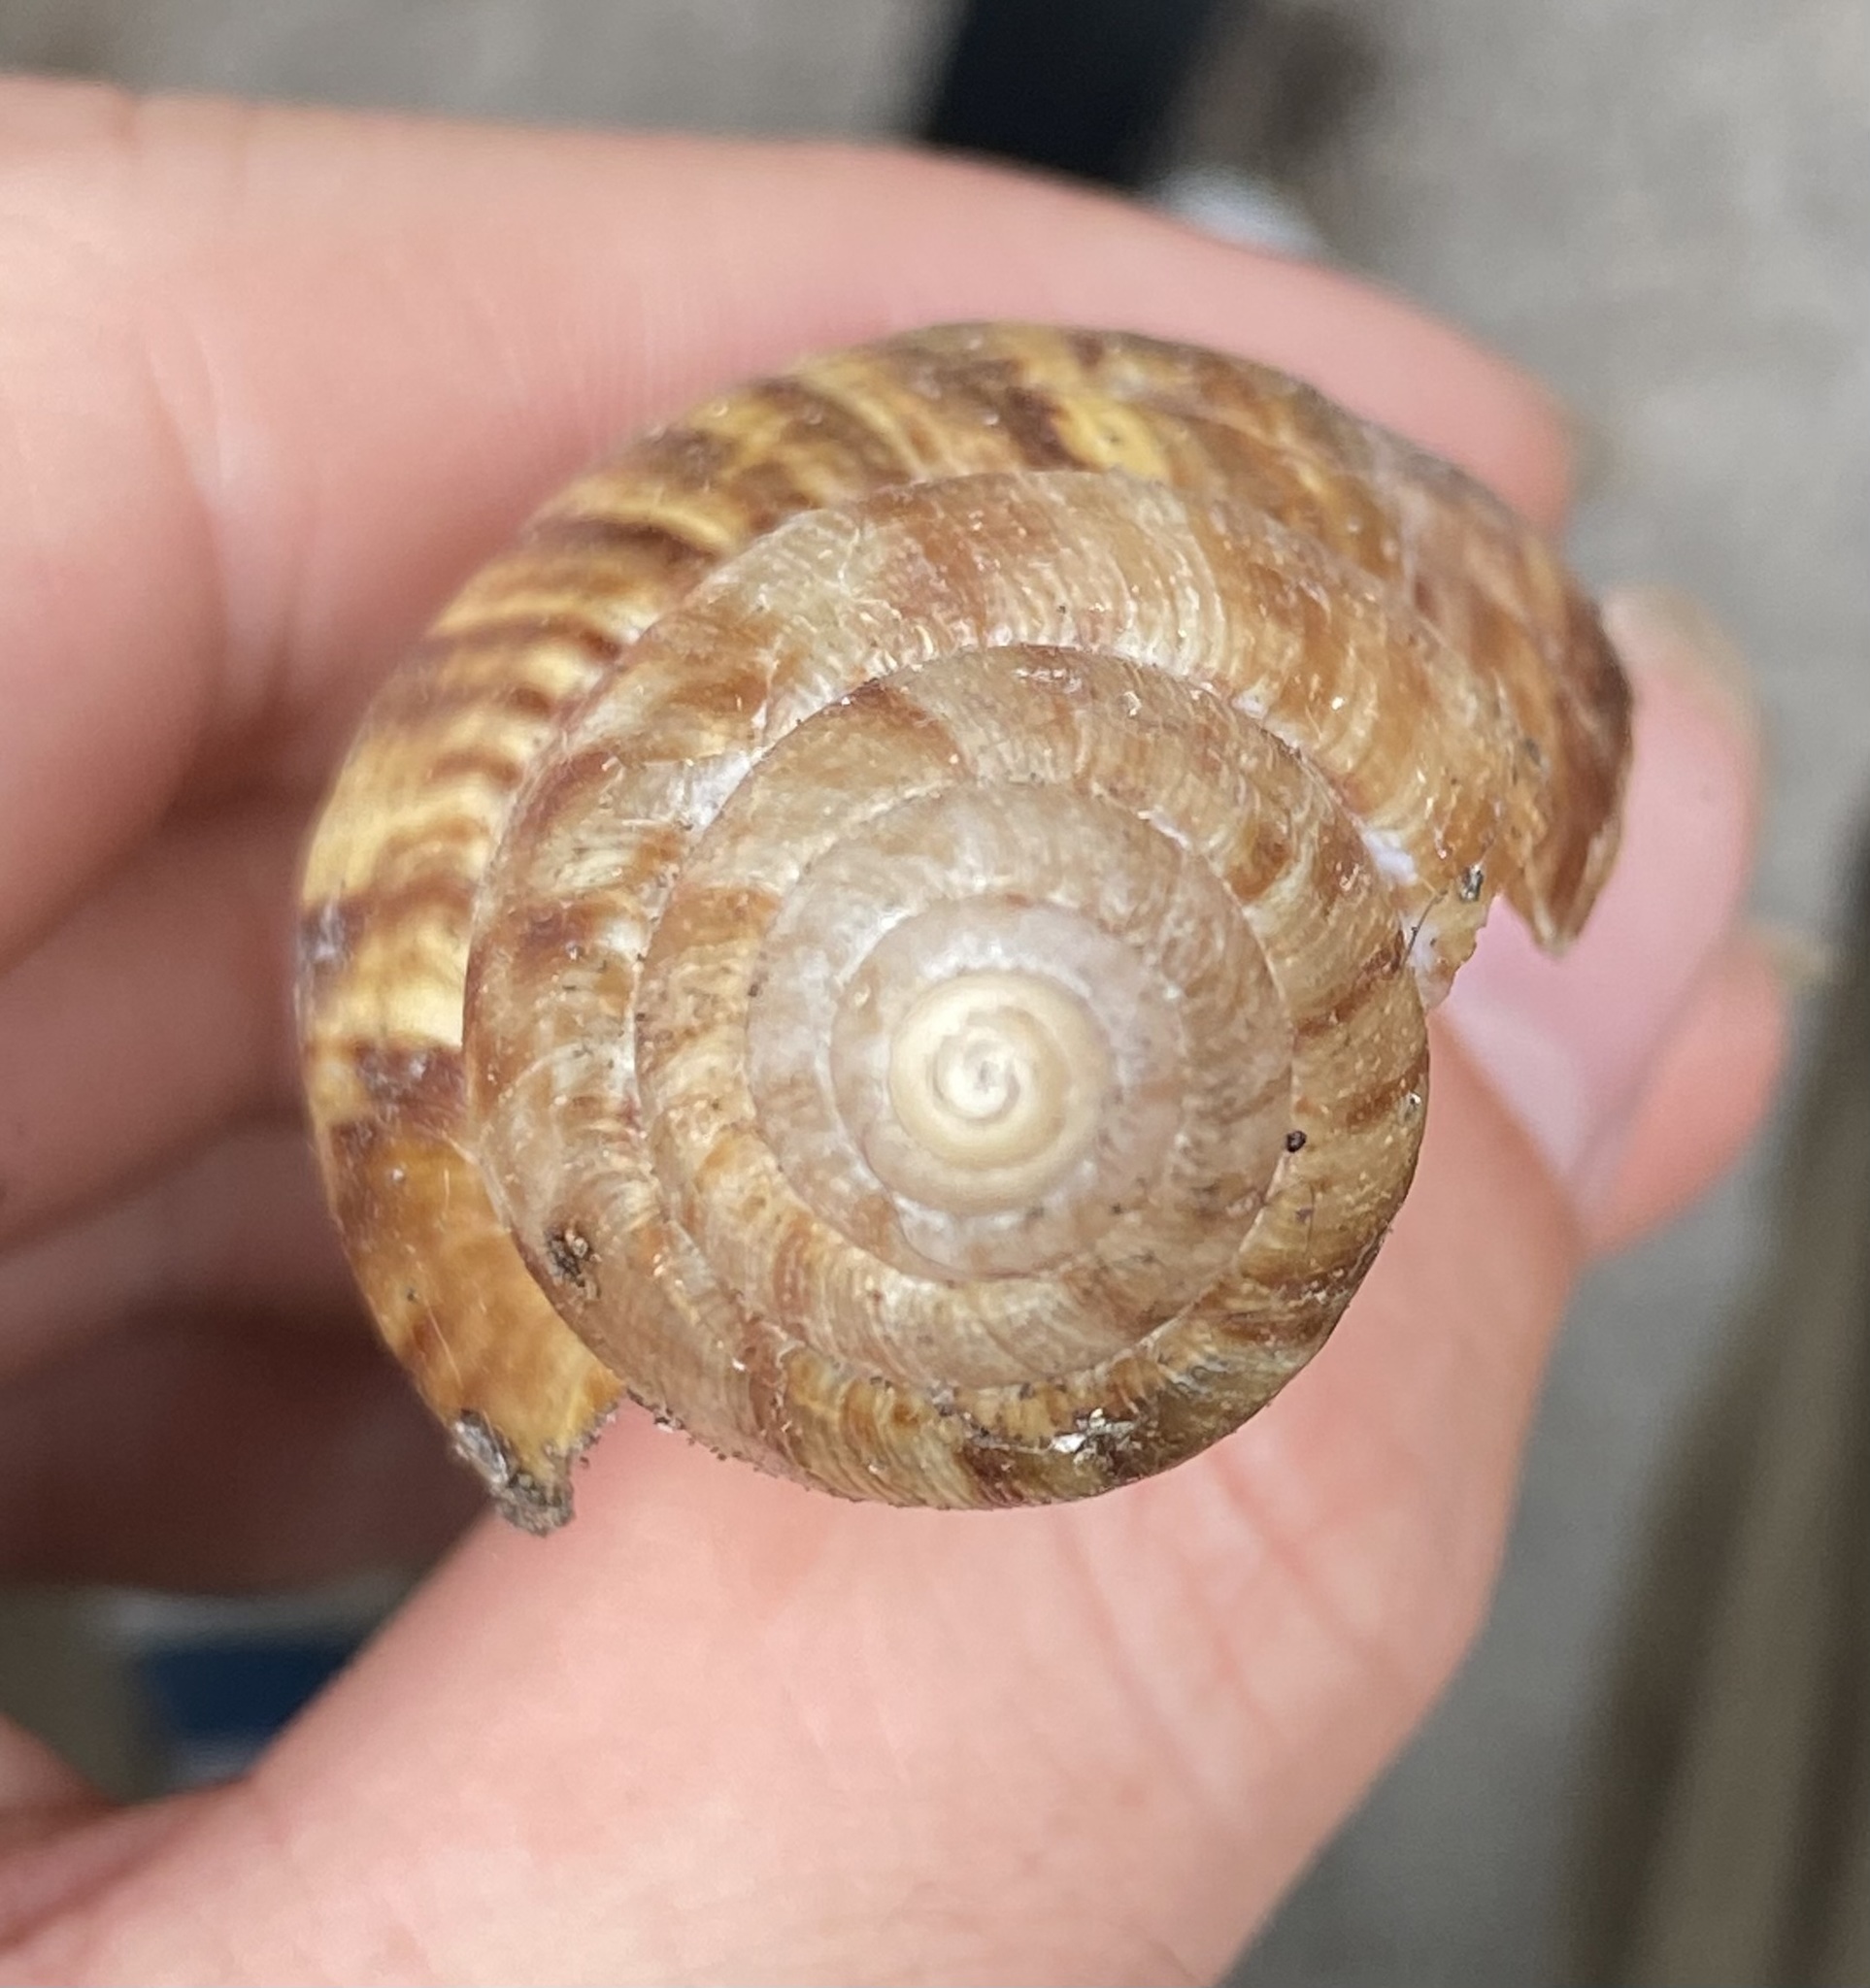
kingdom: Animalia
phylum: Mollusca
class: Gastropoda
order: Stylommatophora
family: Achatinidae
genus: Lissachatina
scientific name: Lissachatina fulica
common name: Giant african snail
